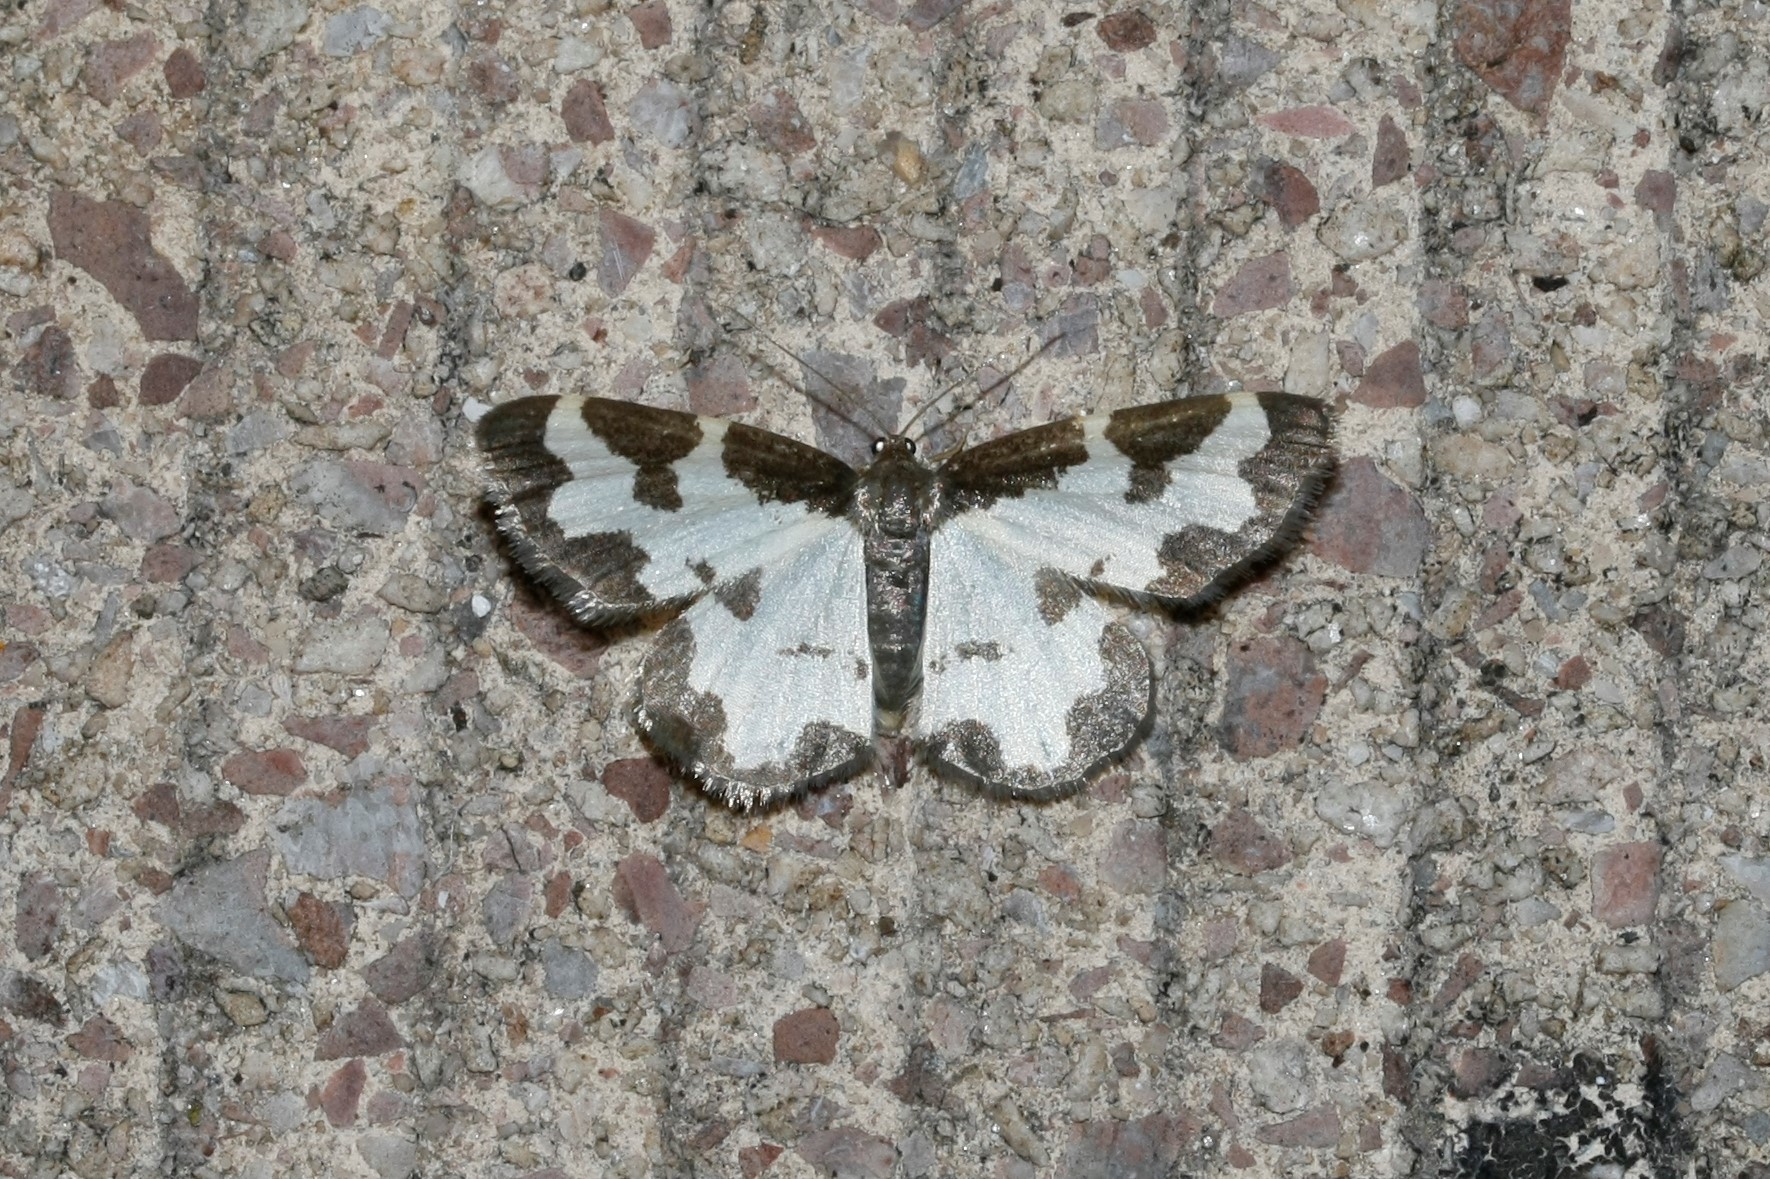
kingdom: Animalia
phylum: Arthropoda
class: Insecta
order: Lepidoptera
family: Geometridae
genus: Lomaspilis
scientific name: Lomaspilis marginata
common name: Clouded border
